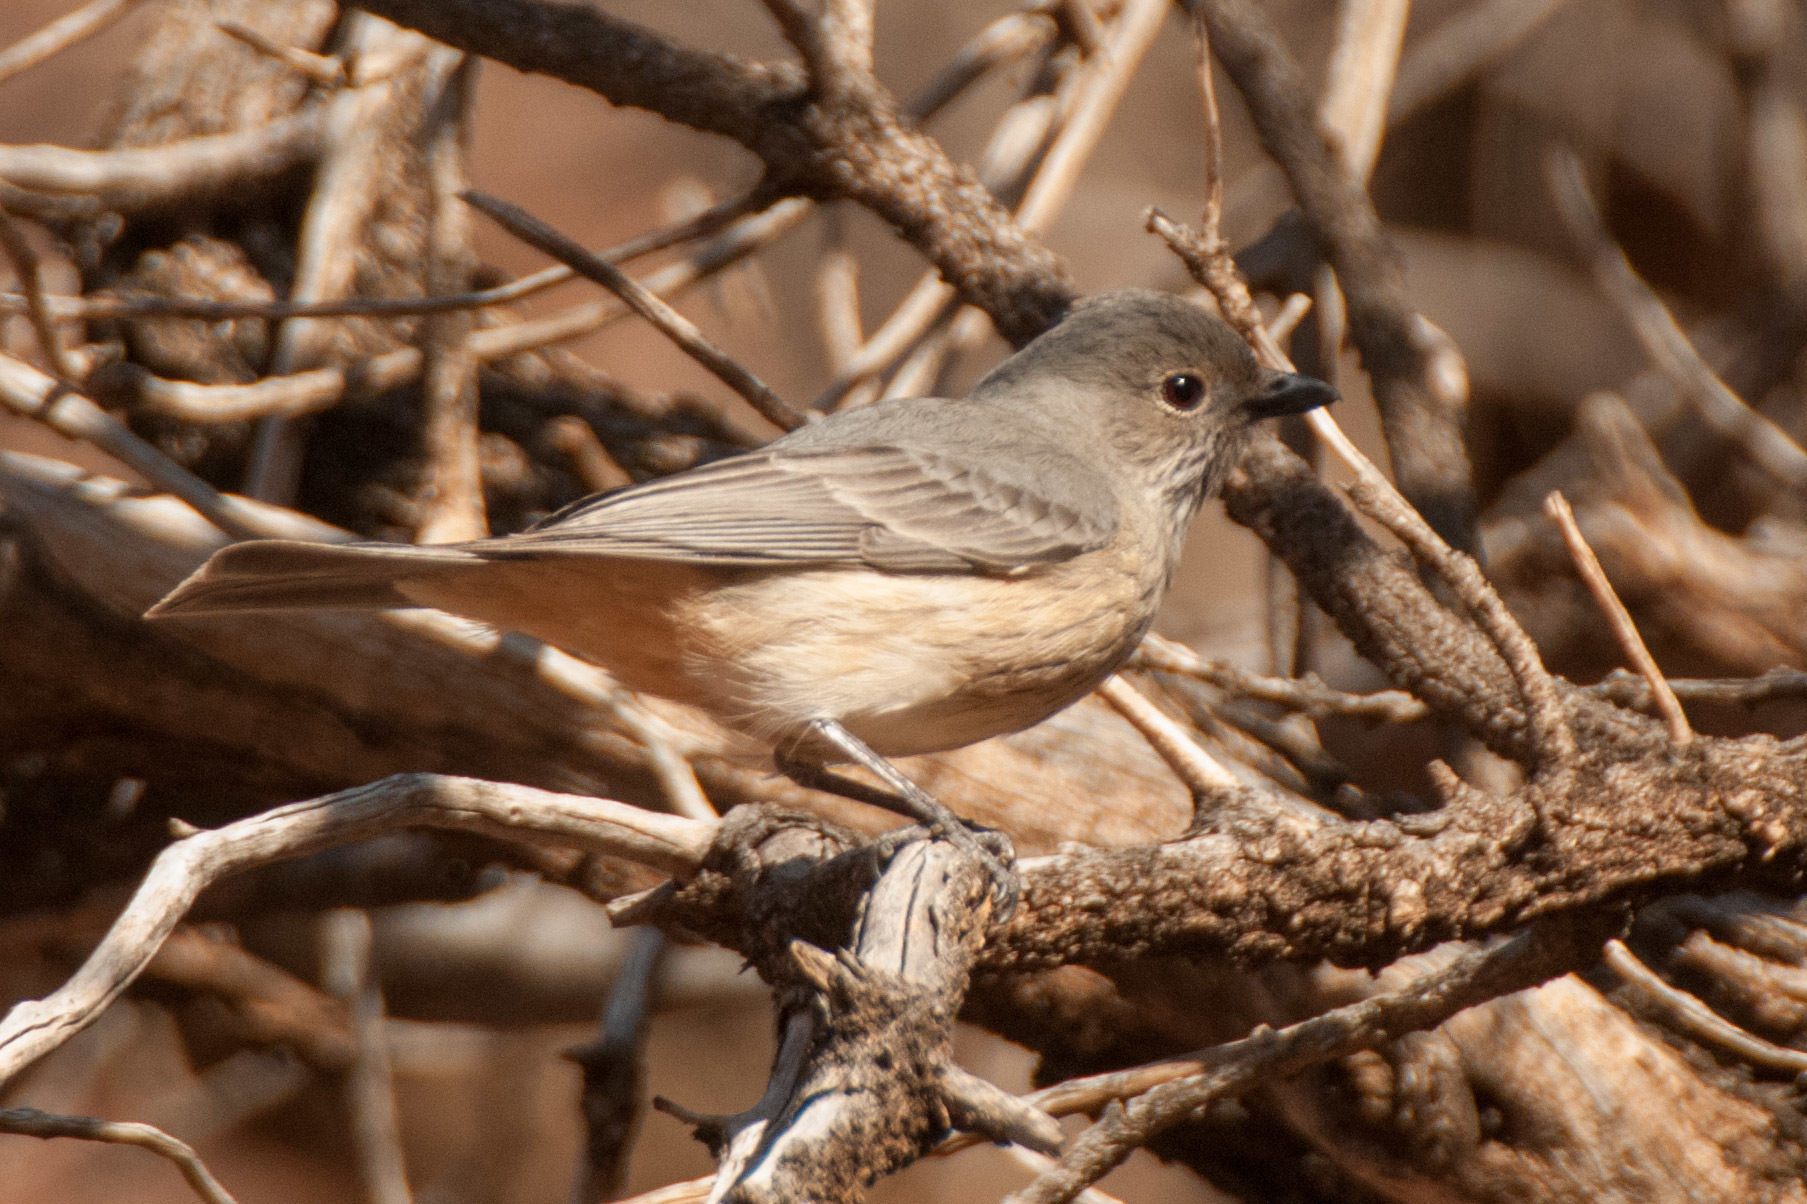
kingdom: Animalia
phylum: Chordata
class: Aves
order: Passeriformes
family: Pachycephalidae
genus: Pachycephala
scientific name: Pachycephala rufiventris
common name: Rufous whistler
